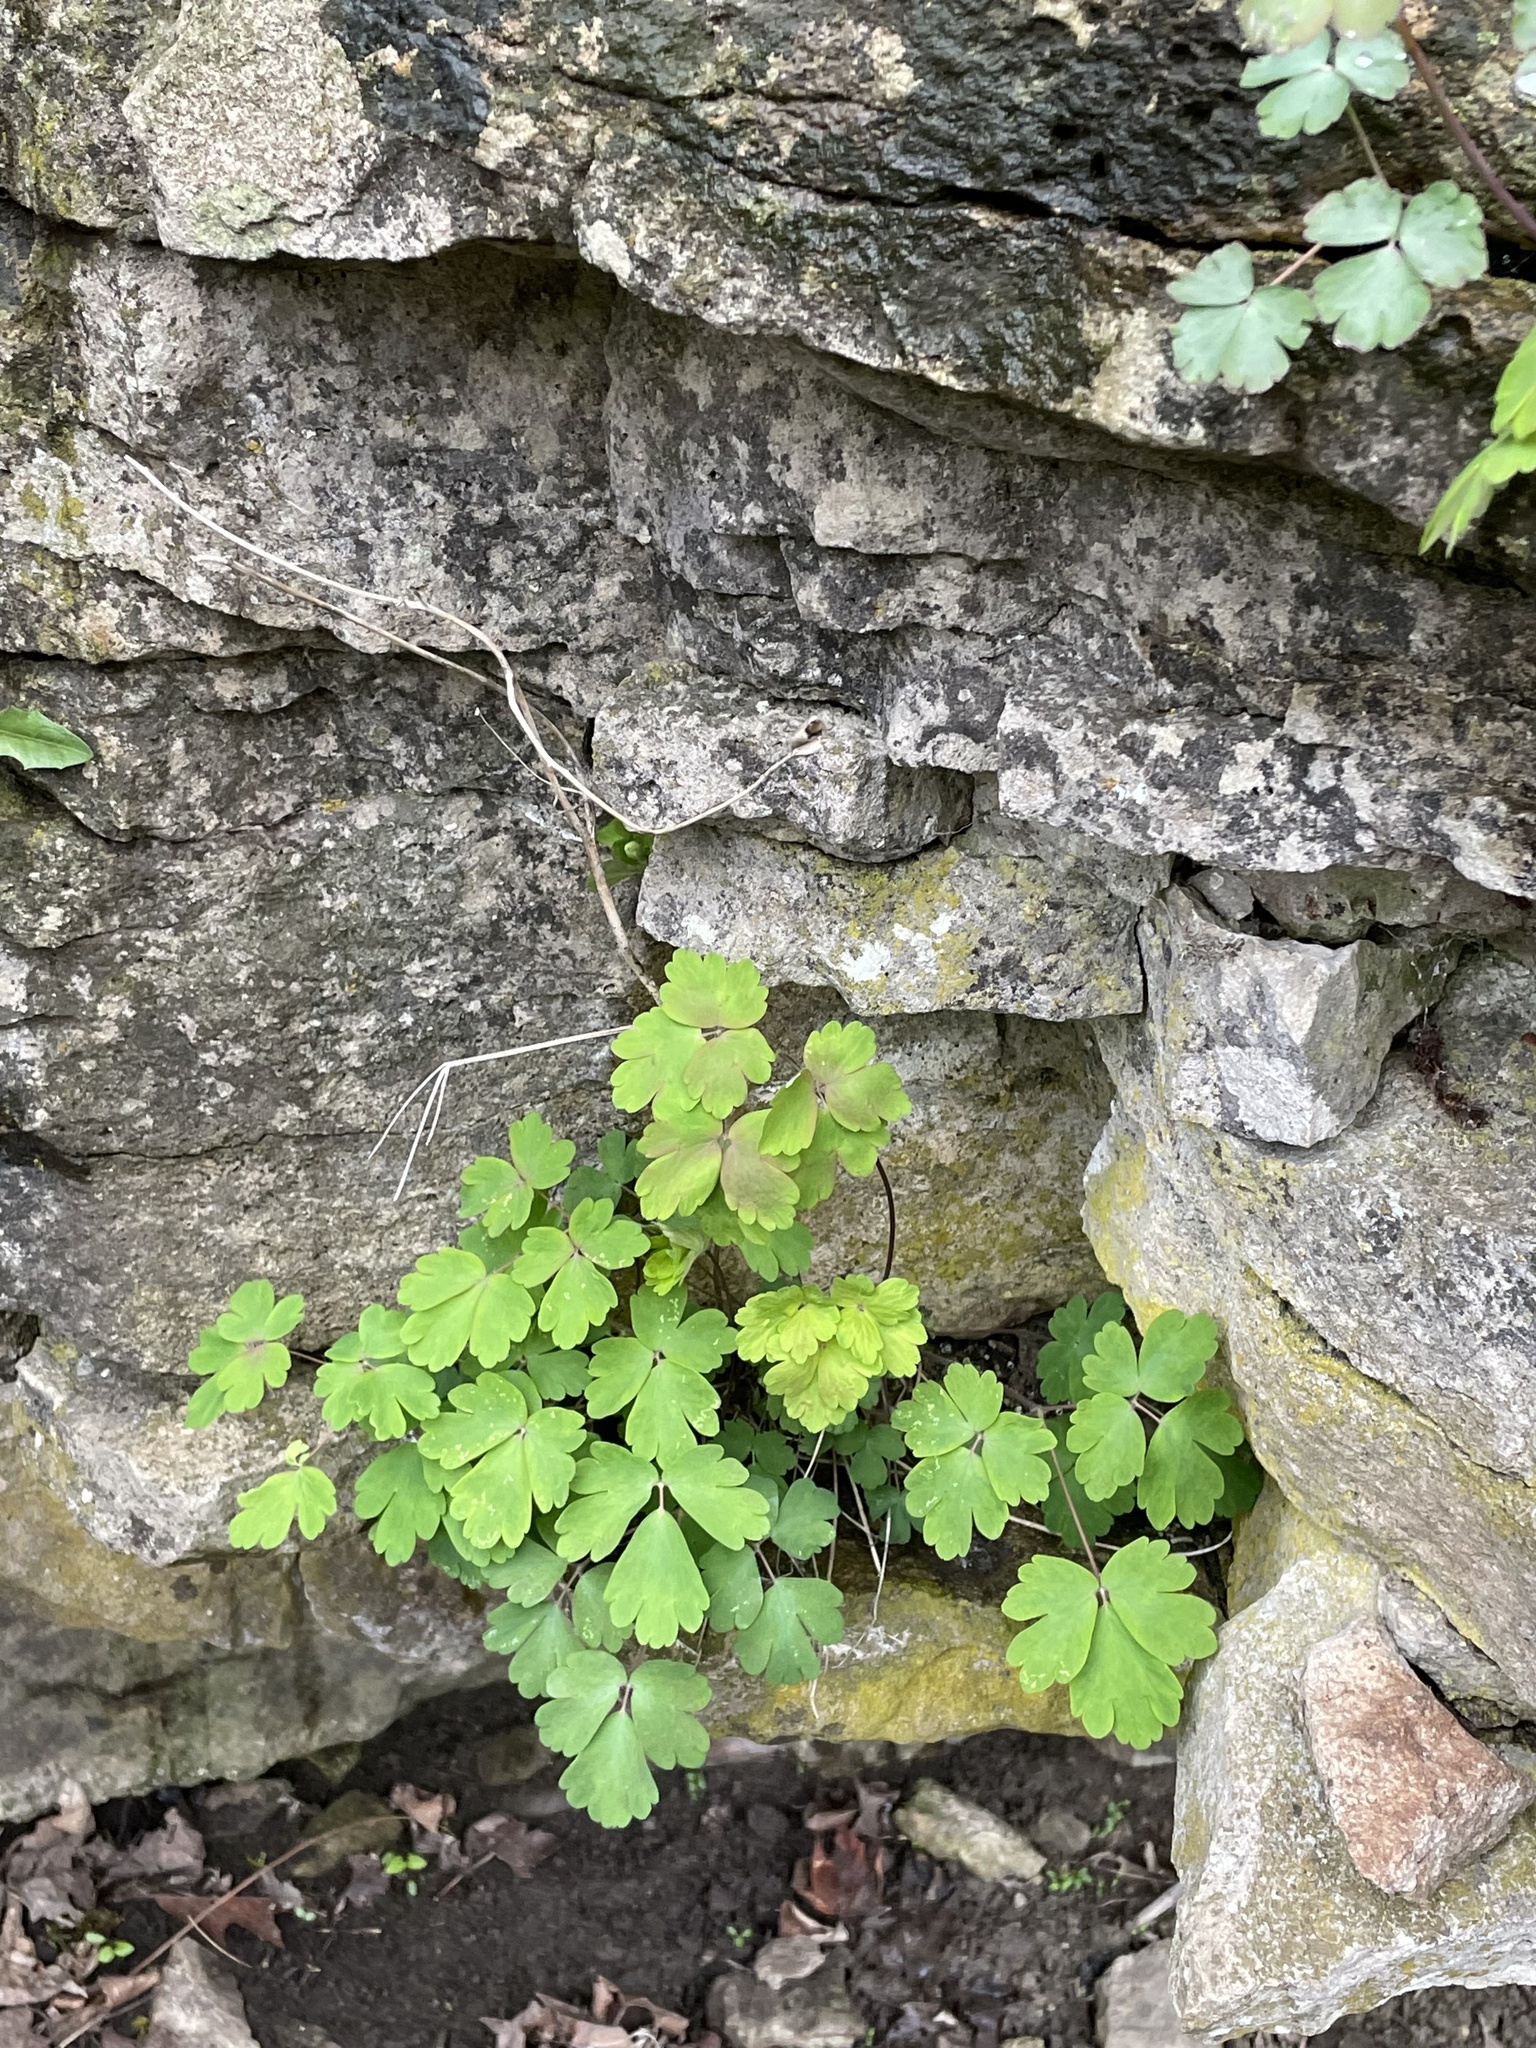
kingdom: Plantae
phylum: Tracheophyta
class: Magnoliopsida
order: Ranunculales
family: Ranunculaceae
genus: Aquilegia
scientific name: Aquilegia canadensis
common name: American columbine
